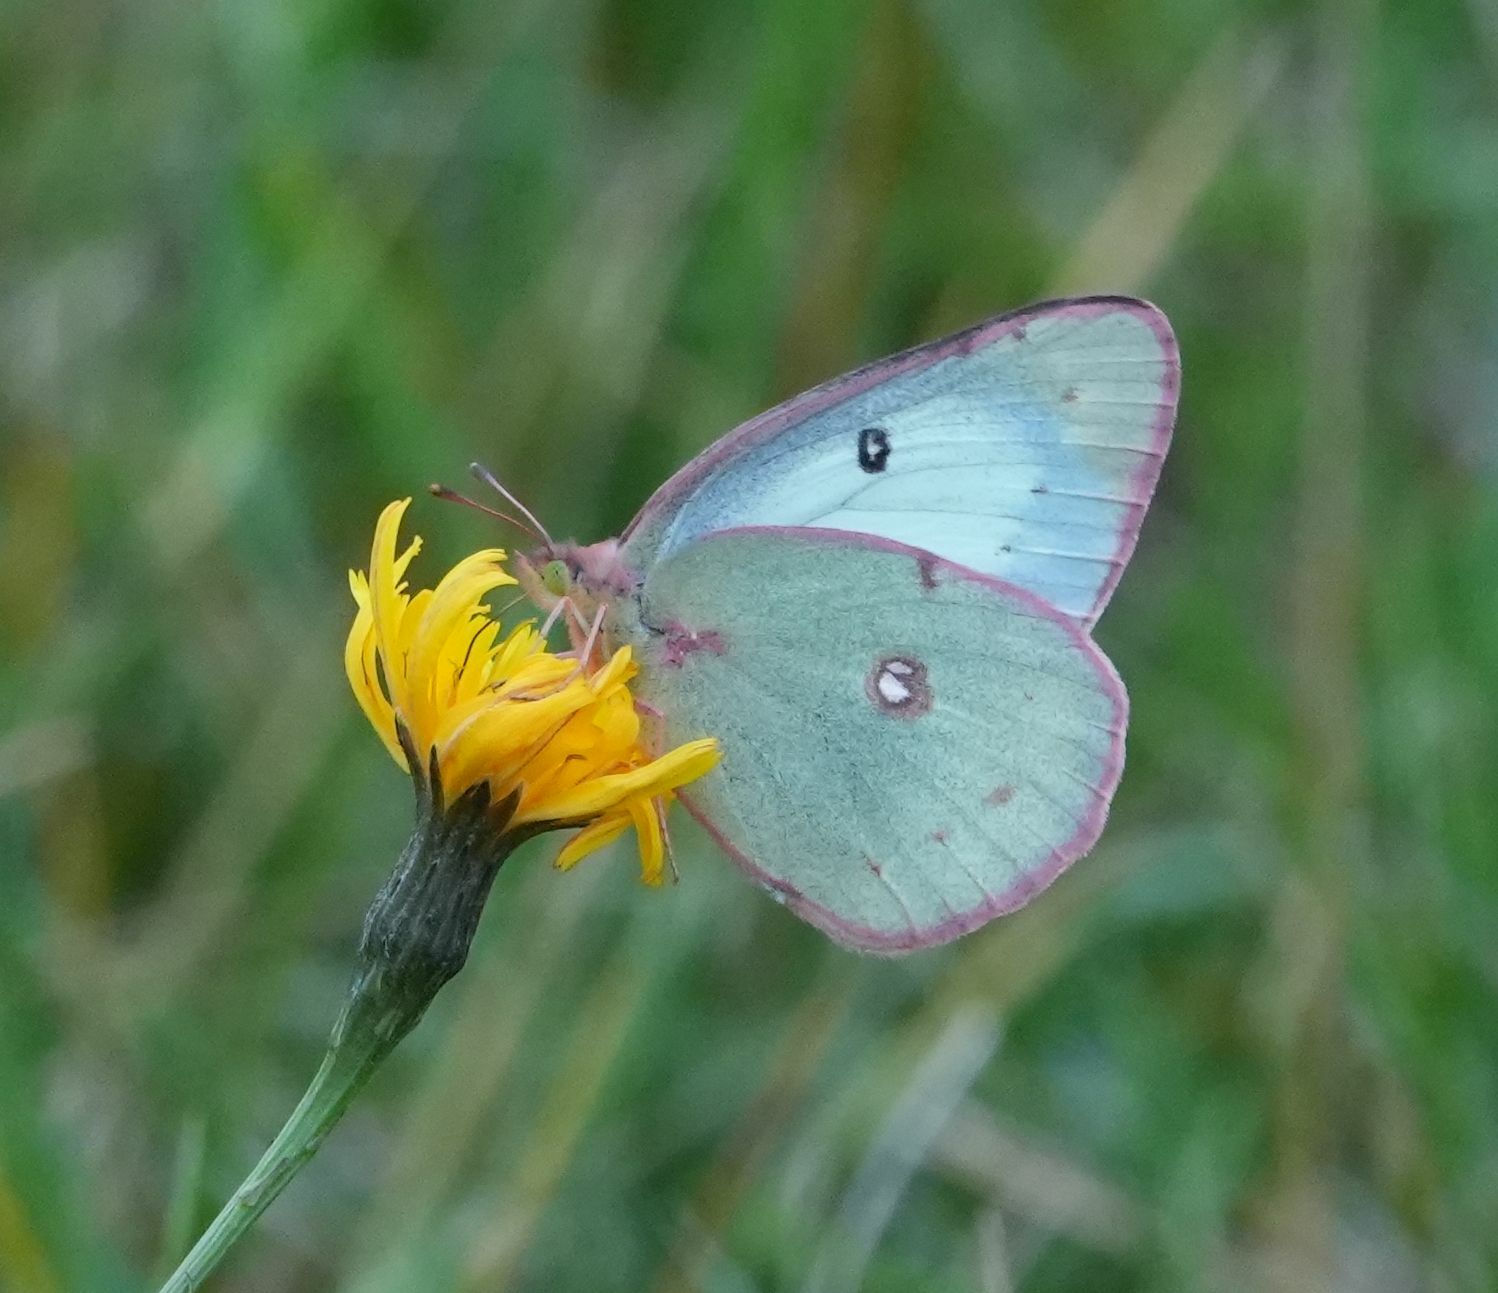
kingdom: Animalia
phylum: Arthropoda
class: Insecta
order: Lepidoptera
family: Pieridae
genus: Colias
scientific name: Colias philodice
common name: Clouded sulphur
